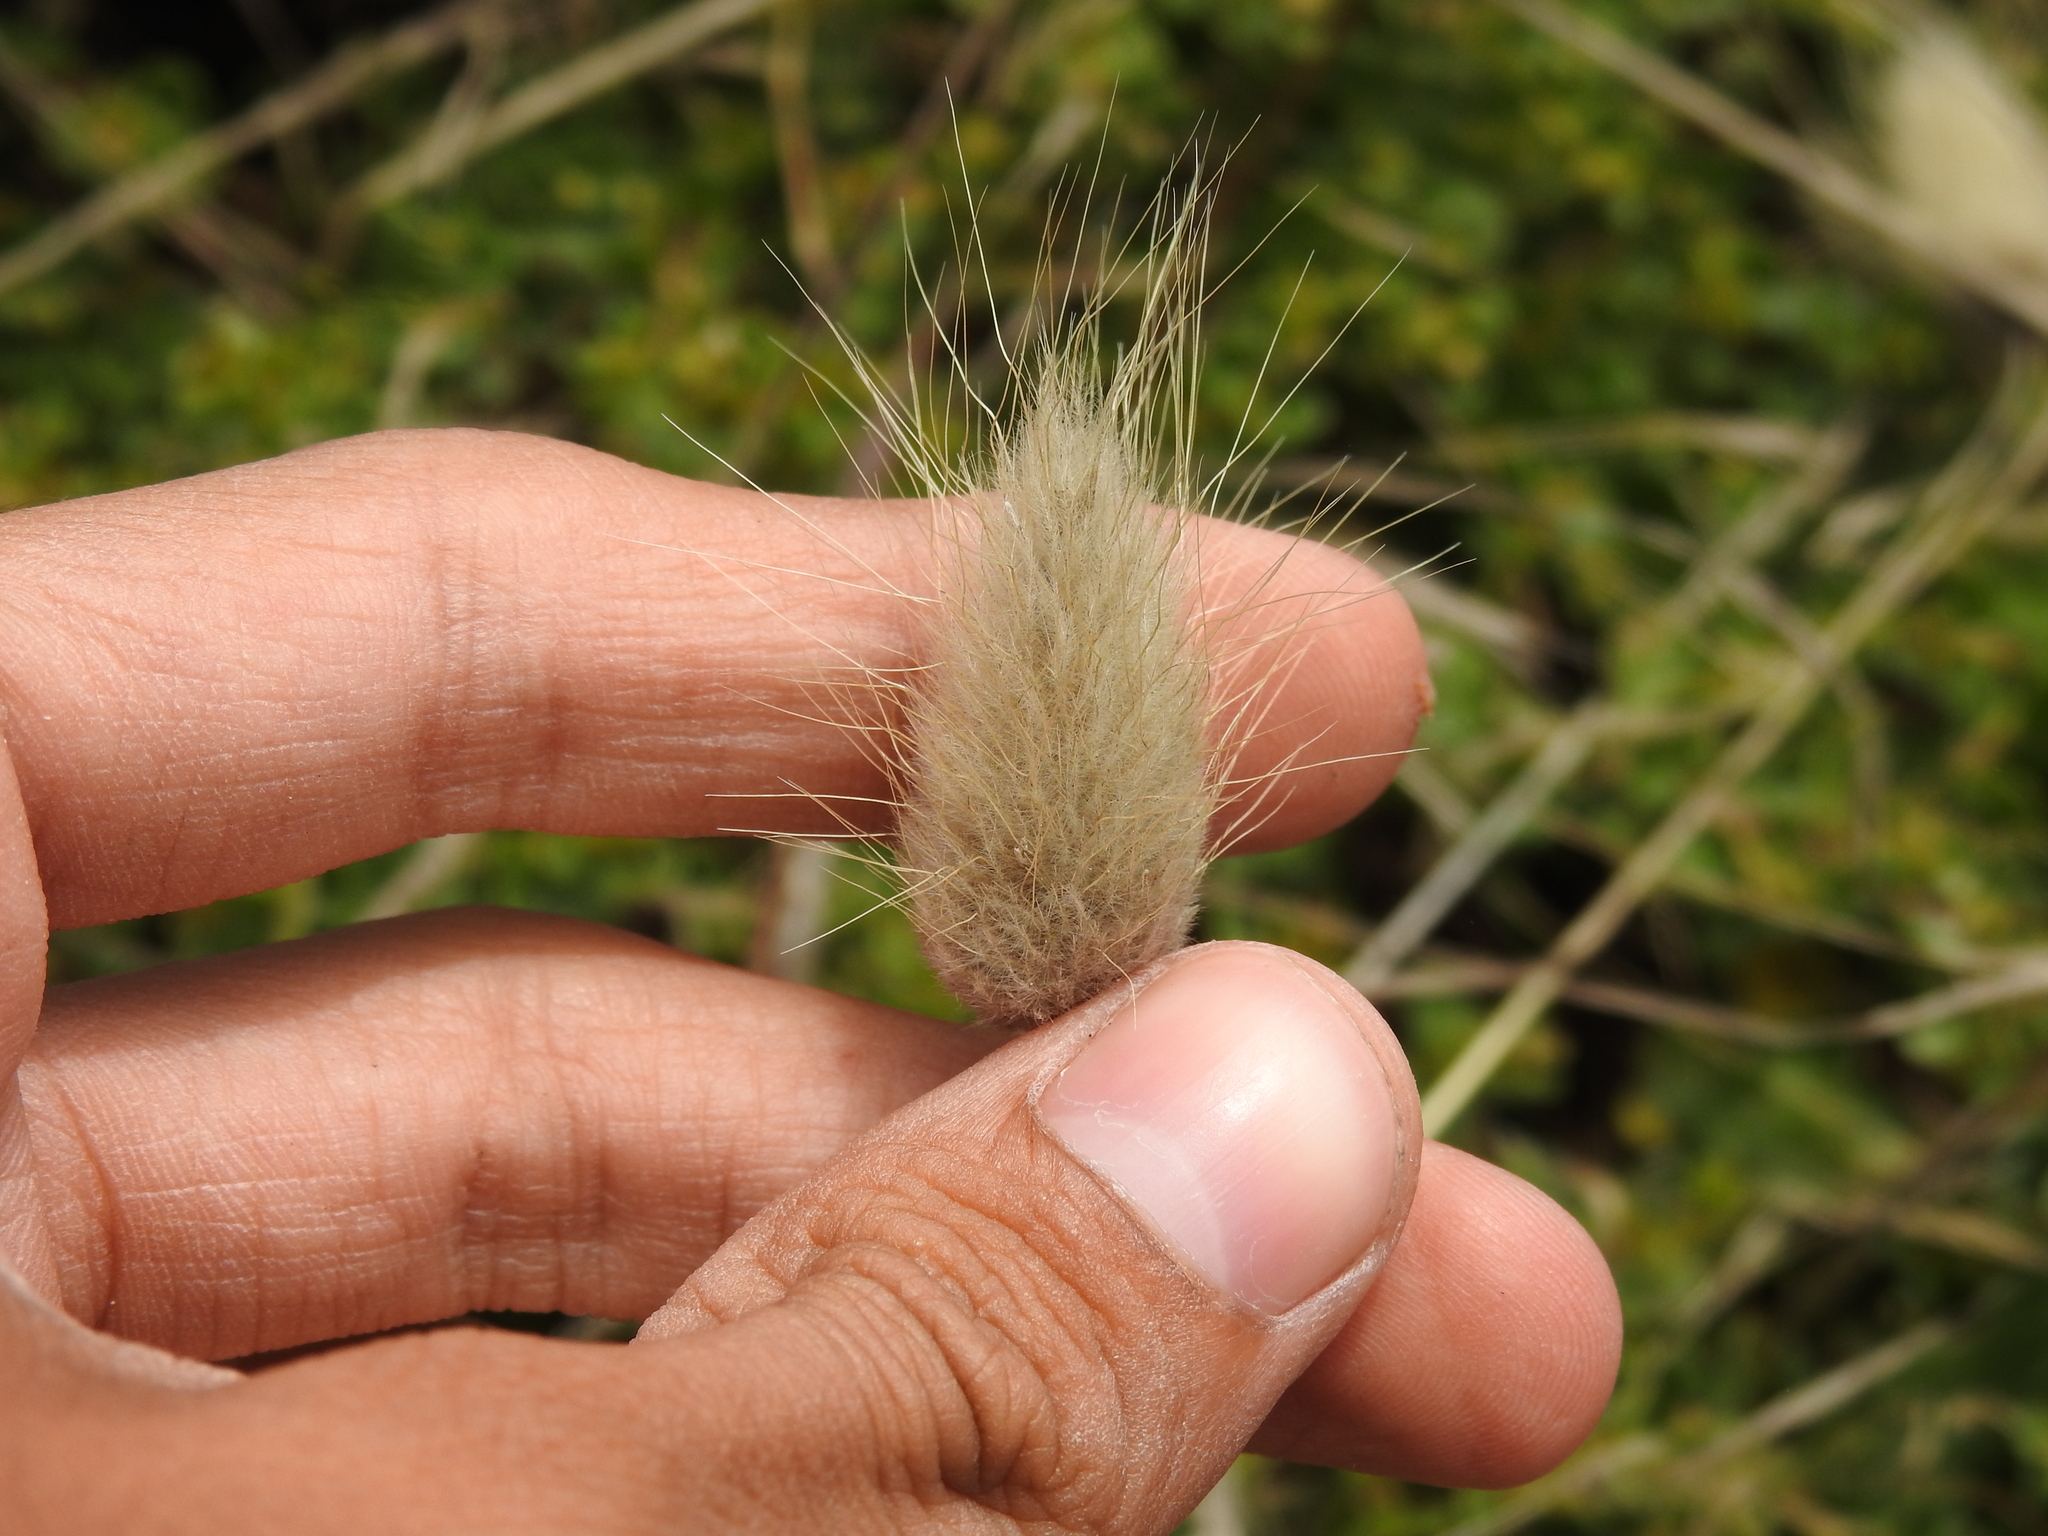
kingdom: Plantae
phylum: Tracheophyta
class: Liliopsida
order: Poales
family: Poaceae
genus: Lagurus
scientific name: Lagurus ovatus
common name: Hare's-tail
